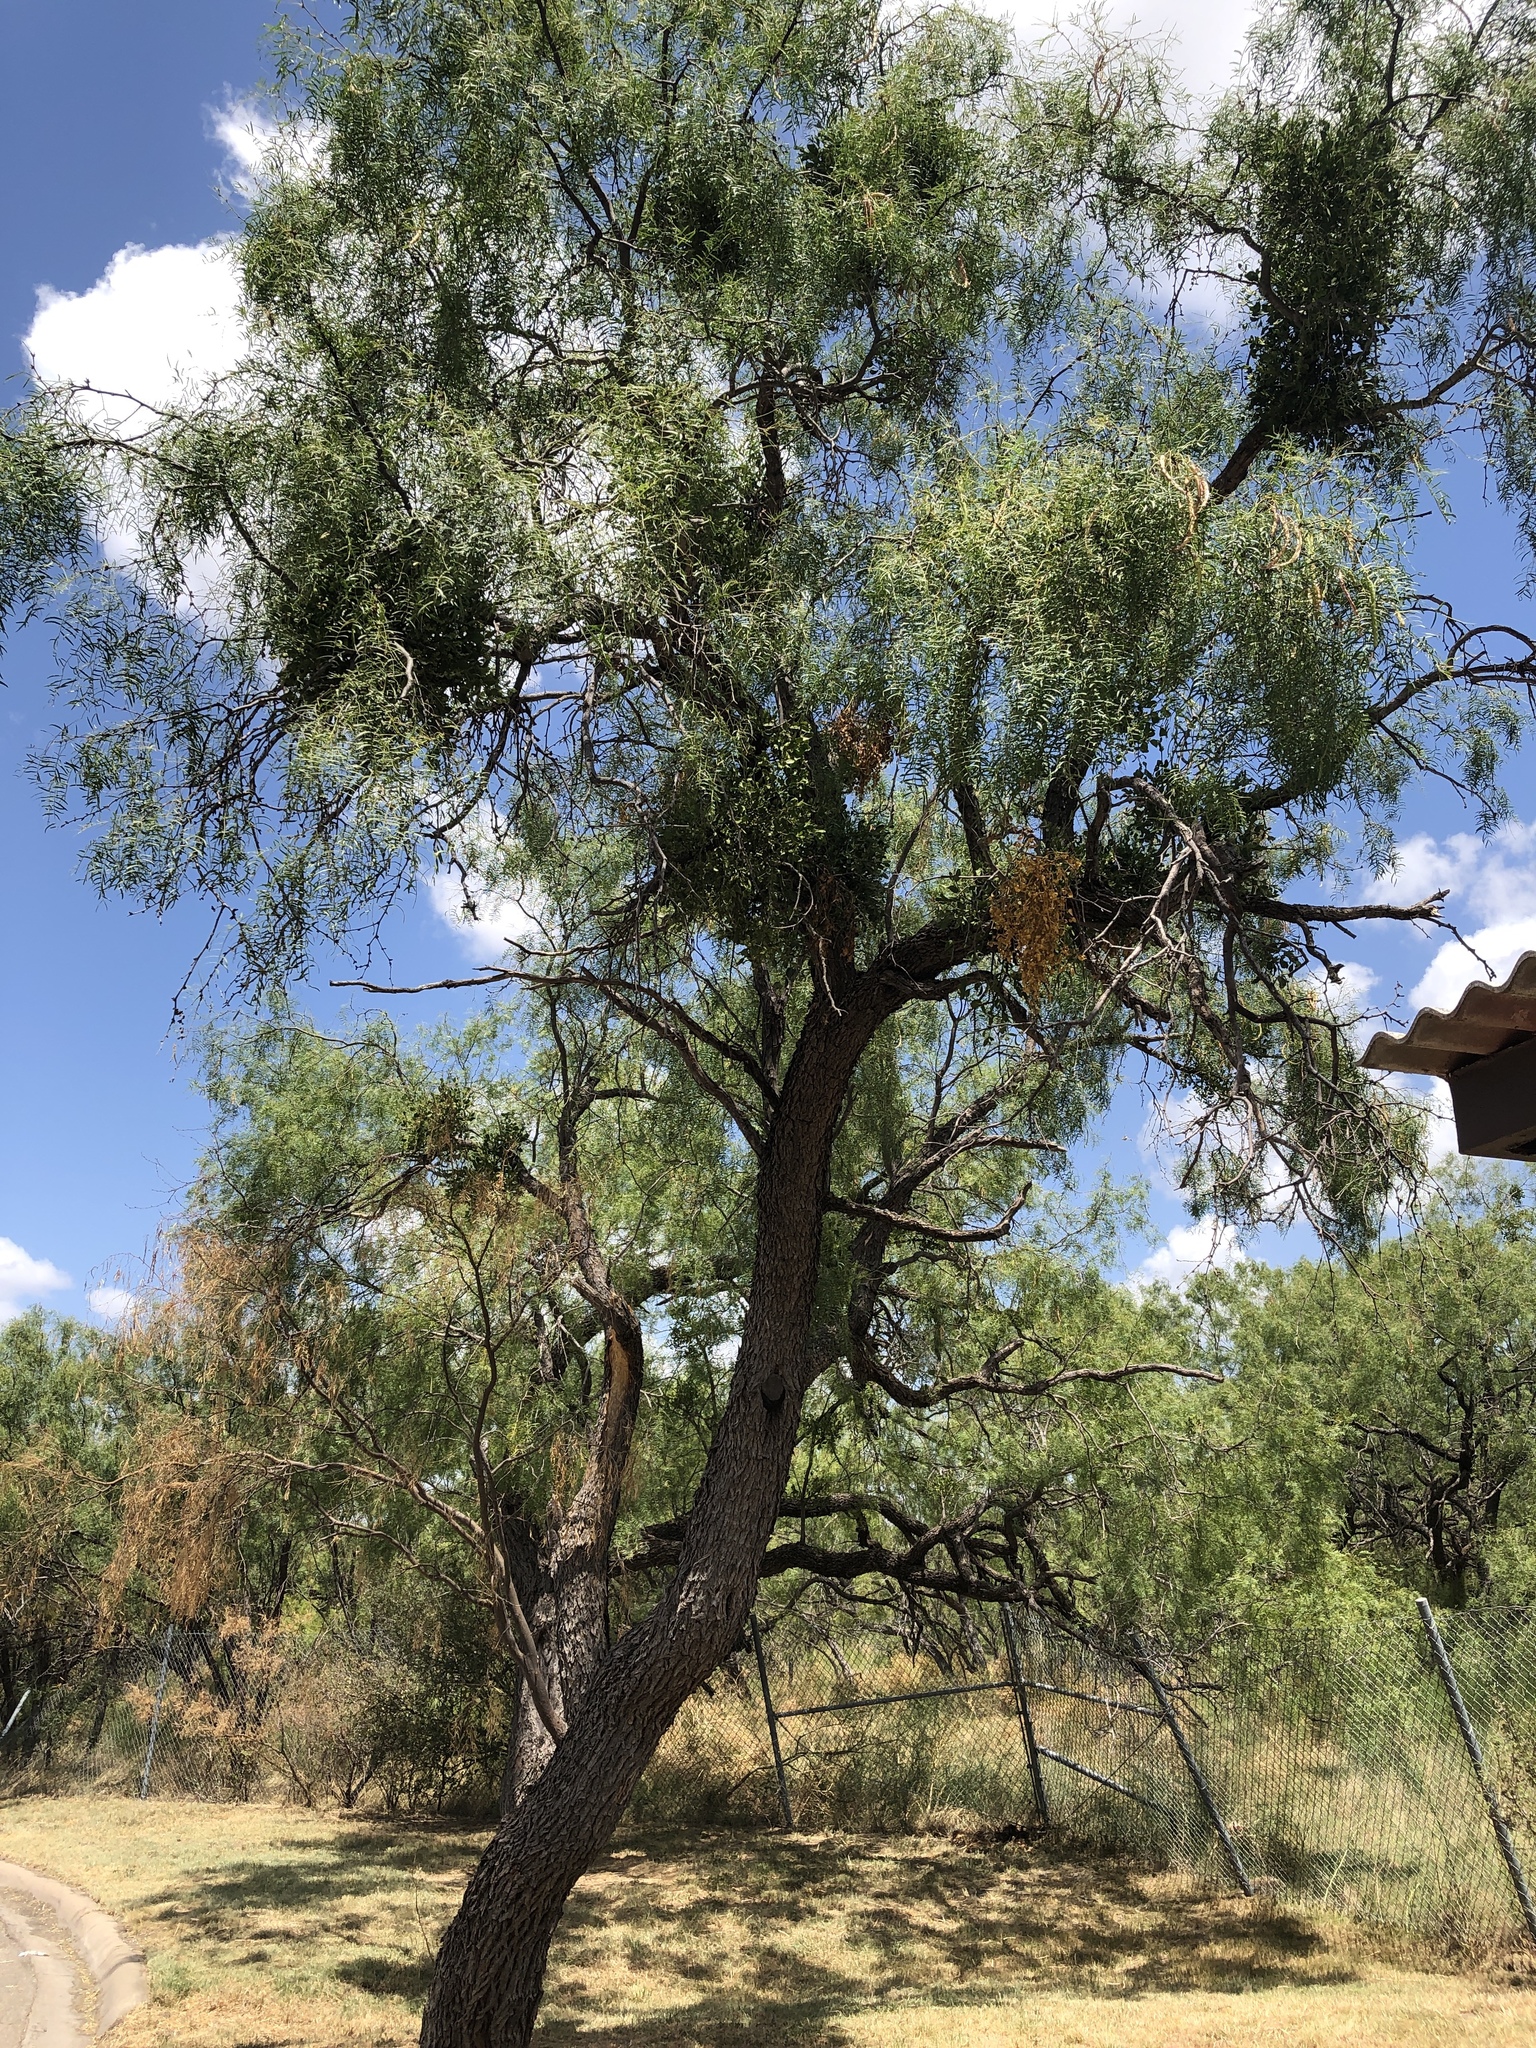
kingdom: Plantae
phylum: Tracheophyta
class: Magnoliopsida
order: Fabales
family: Fabaceae
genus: Prosopis
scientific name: Prosopis glandulosa
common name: Honey mesquite
